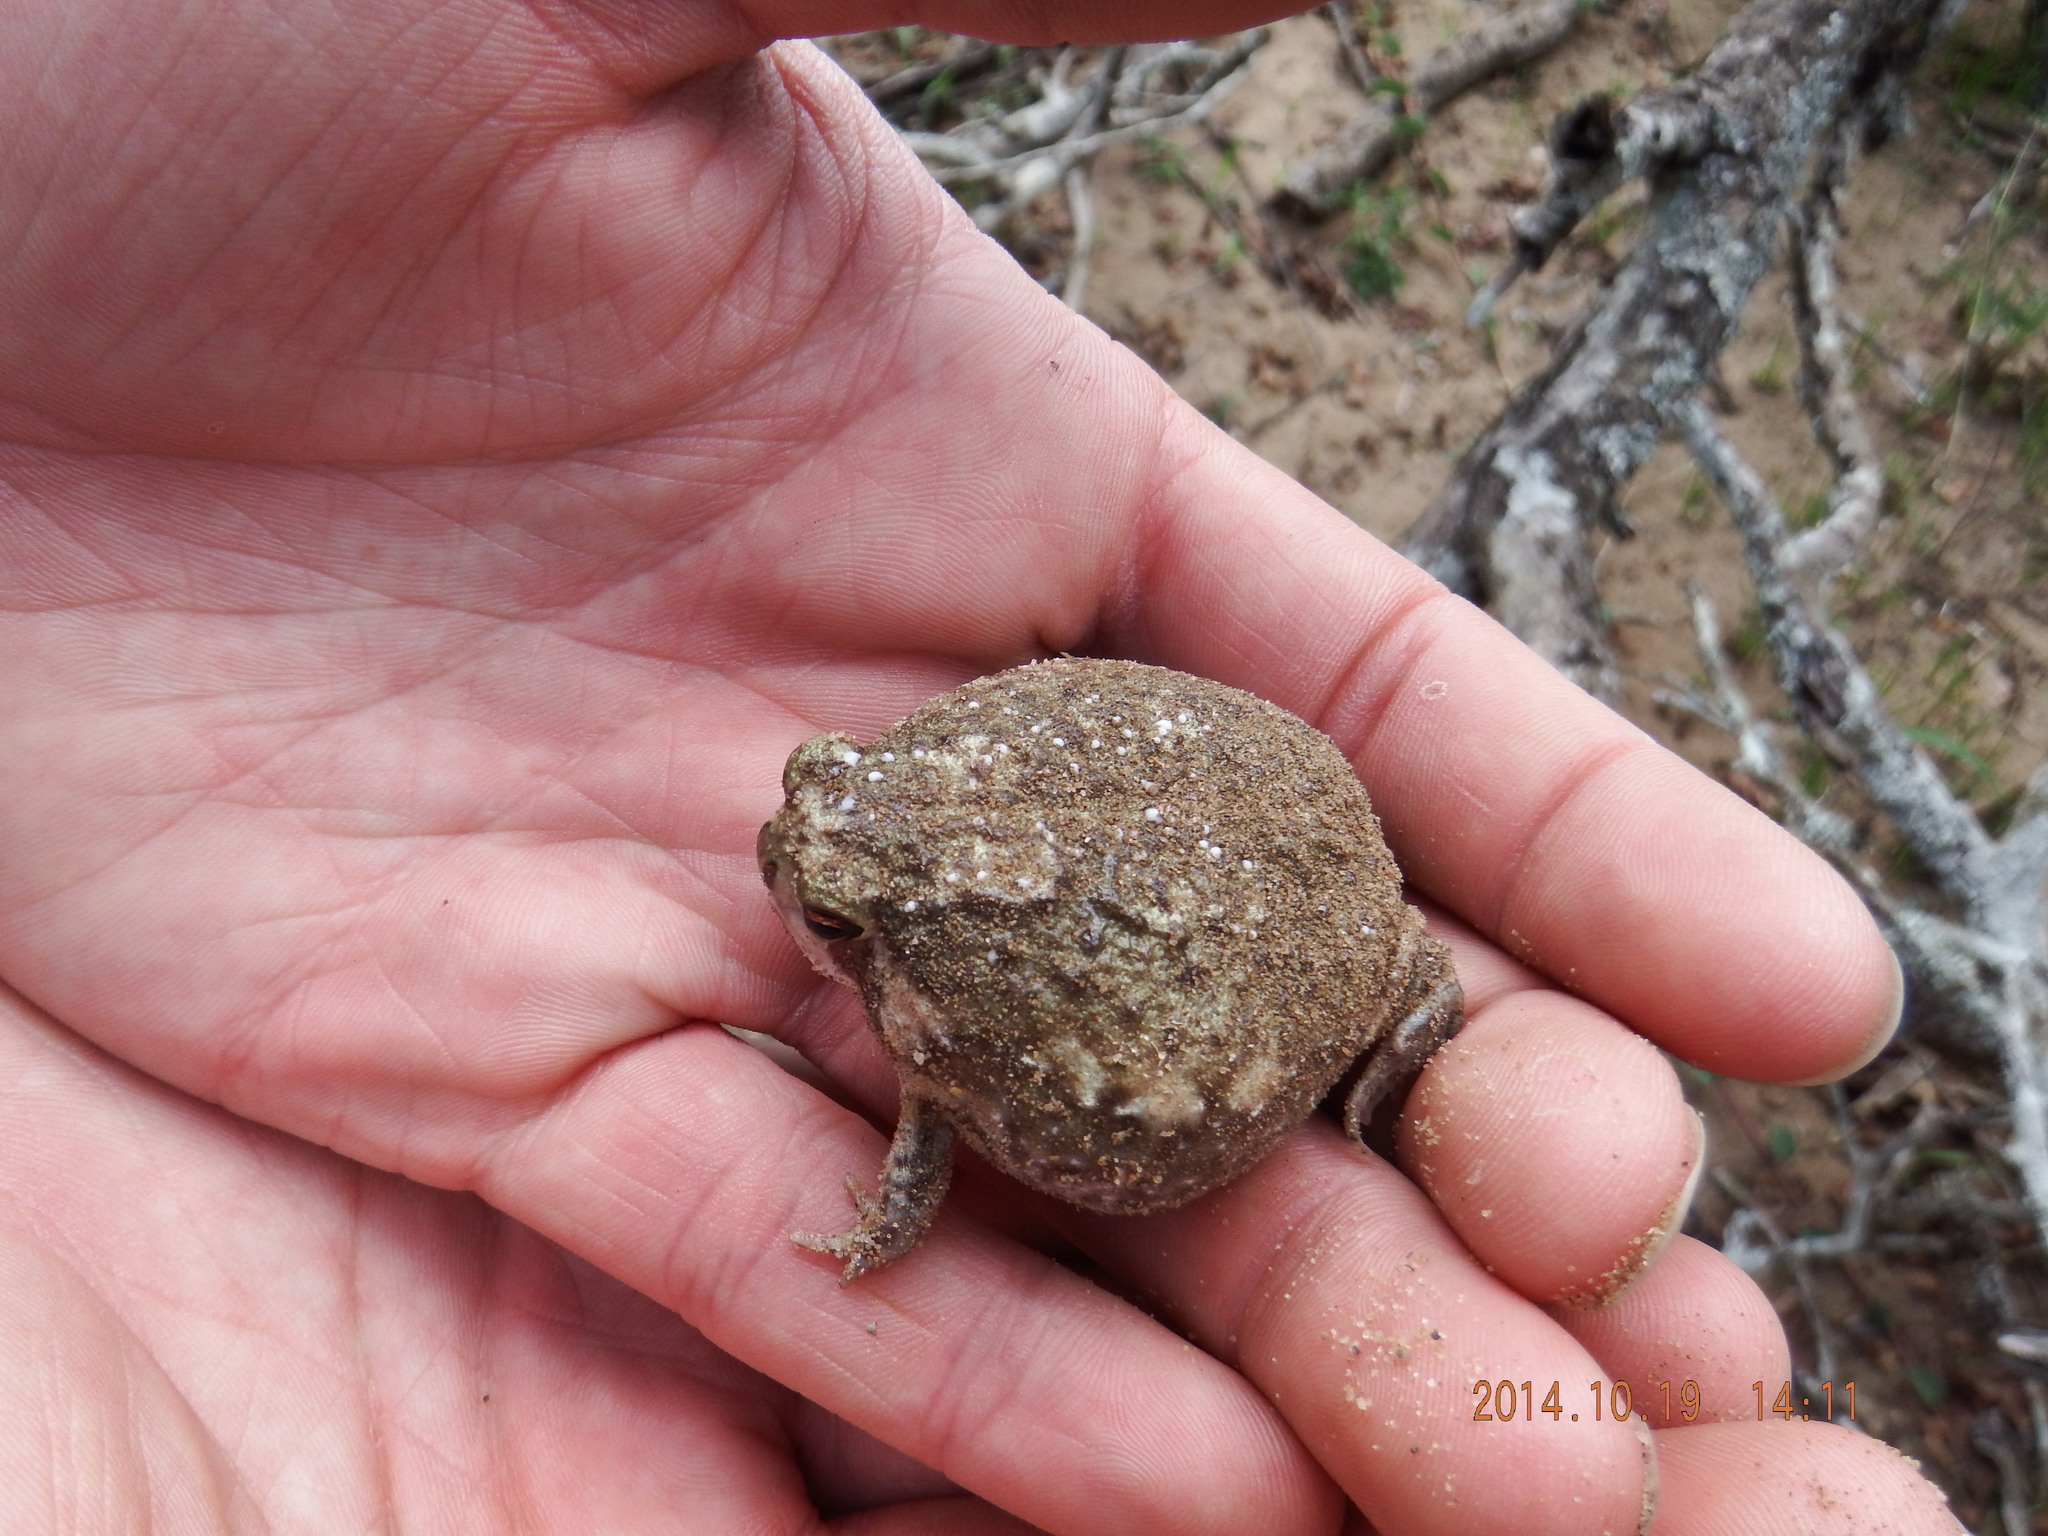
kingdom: Animalia
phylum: Chordata
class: Amphibia
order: Anura
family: Brevicipitidae
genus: Breviceps
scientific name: Breviceps adspersus
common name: Common rain frog
